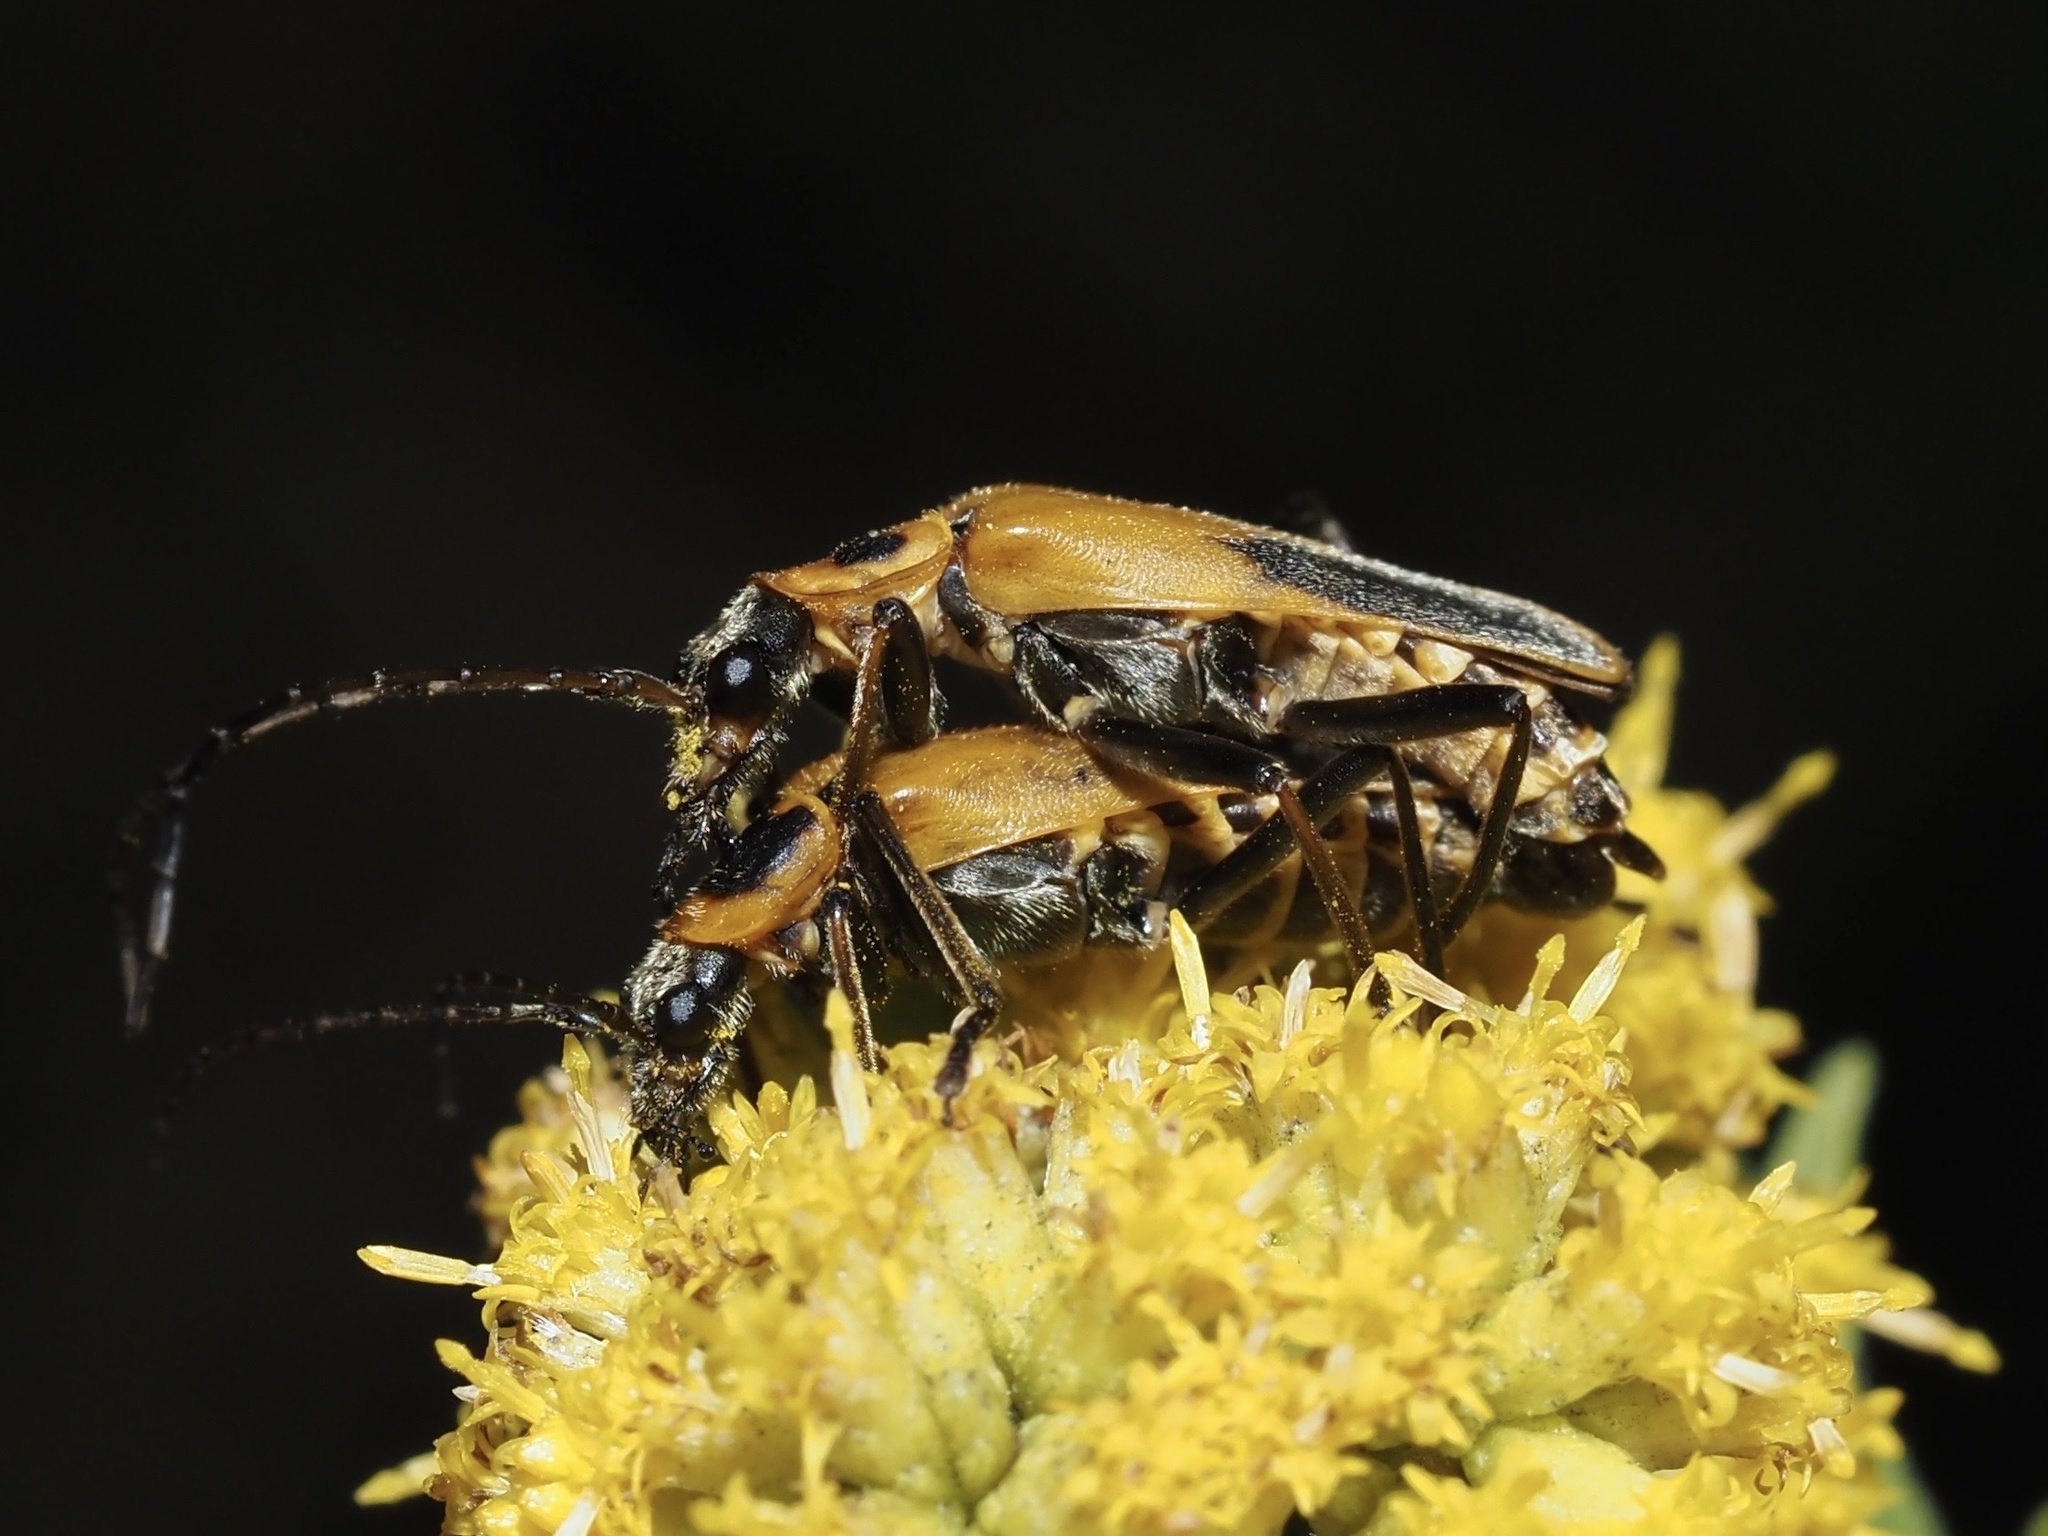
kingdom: Animalia
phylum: Arthropoda
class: Insecta
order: Coleoptera
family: Cantharidae
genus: Chauliognathus
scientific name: Chauliognathus pensylvanicus
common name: Goldenrod soldier beetle
